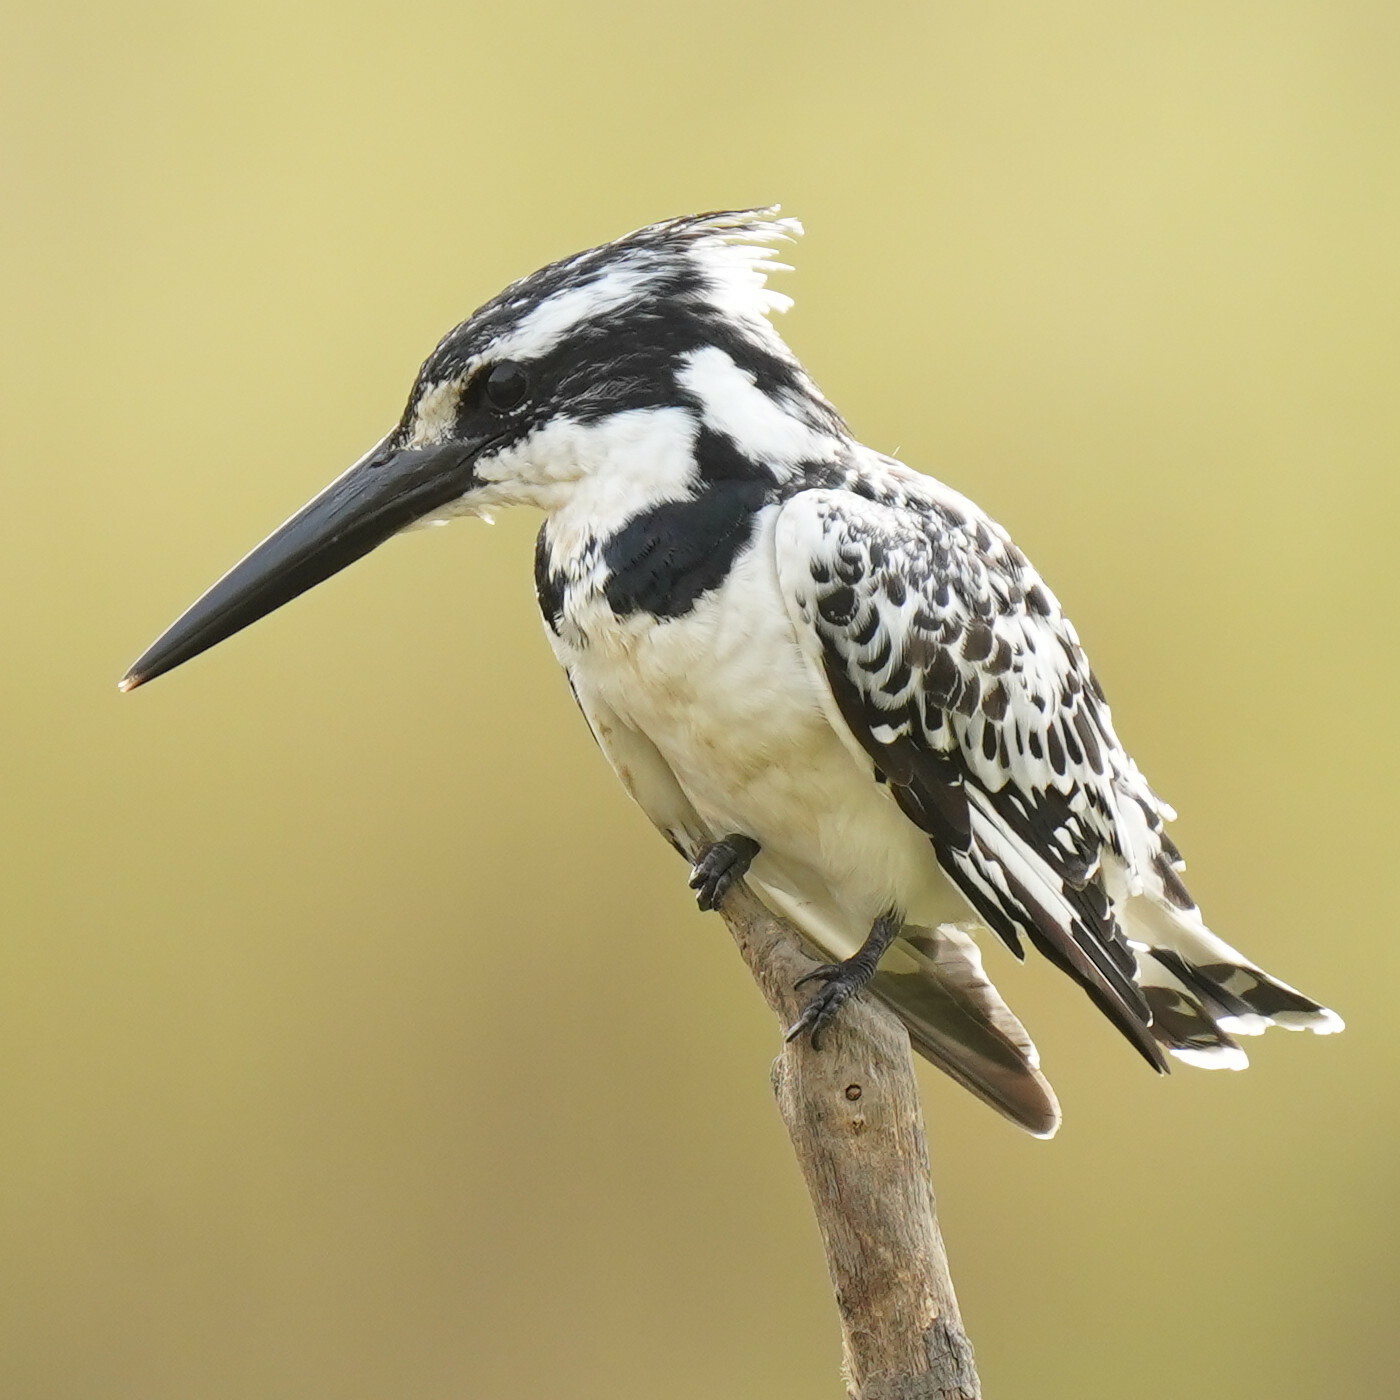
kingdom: Animalia
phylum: Chordata
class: Aves
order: Coraciiformes
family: Alcedinidae
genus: Ceryle
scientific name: Ceryle rudis
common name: Pied kingfisher
